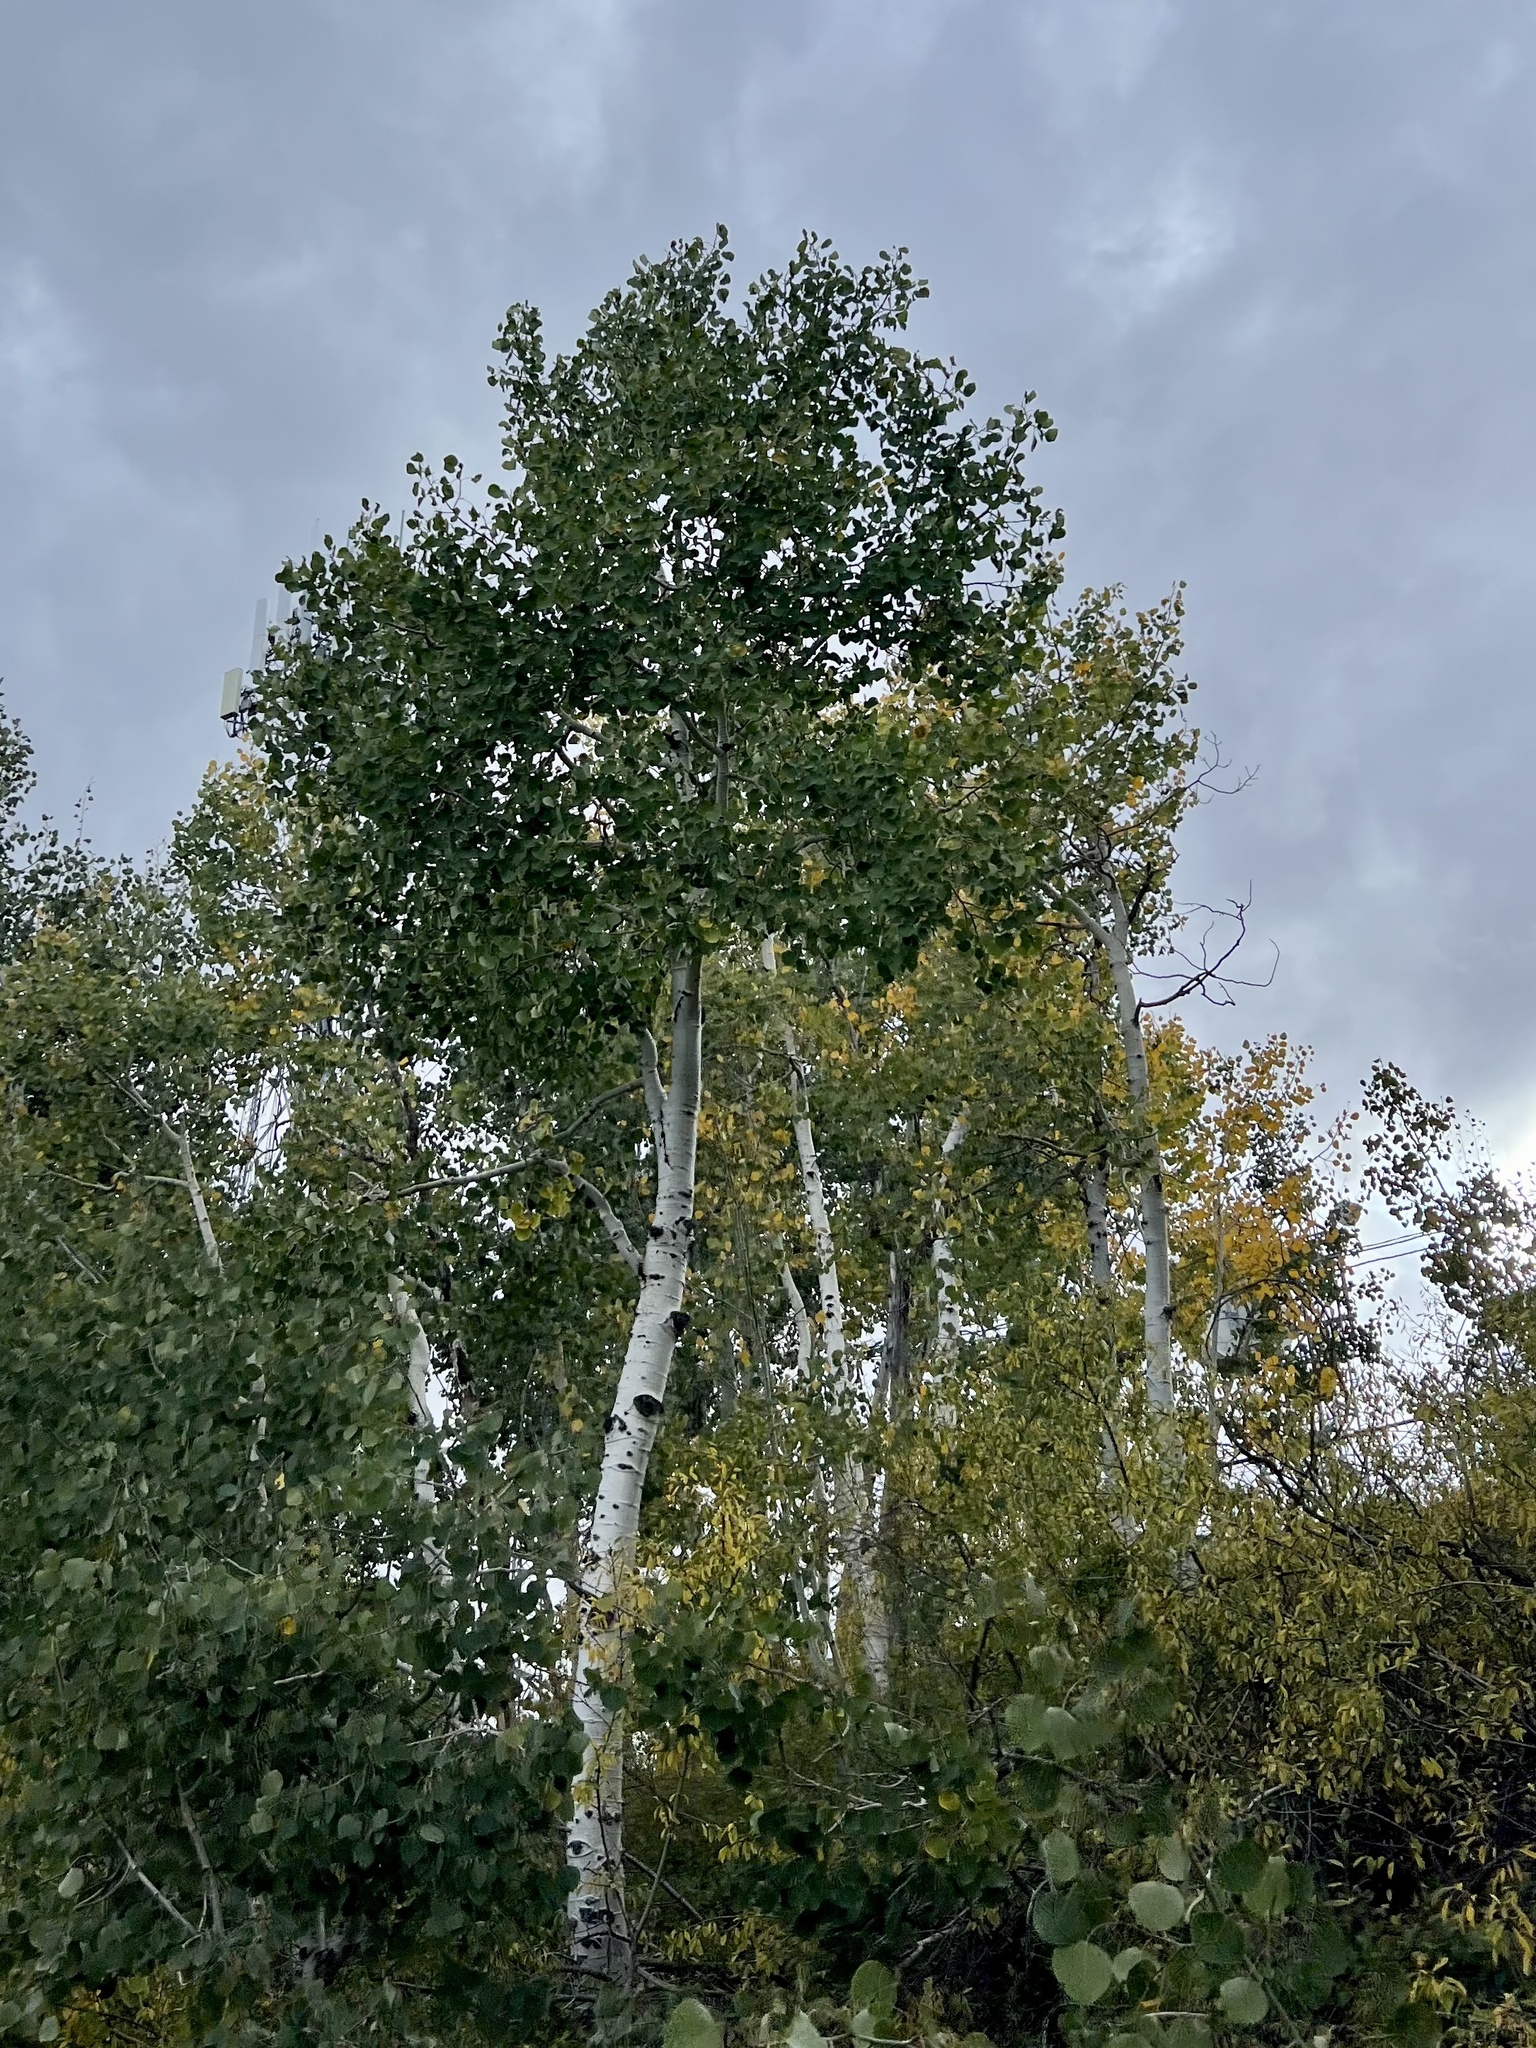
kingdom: Plantae
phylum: Tracheophyta
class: Magnoliopsida
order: Malpighiales
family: Salicaceae
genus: Populus
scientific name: Populus tremuloides
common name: Quaking aspen
